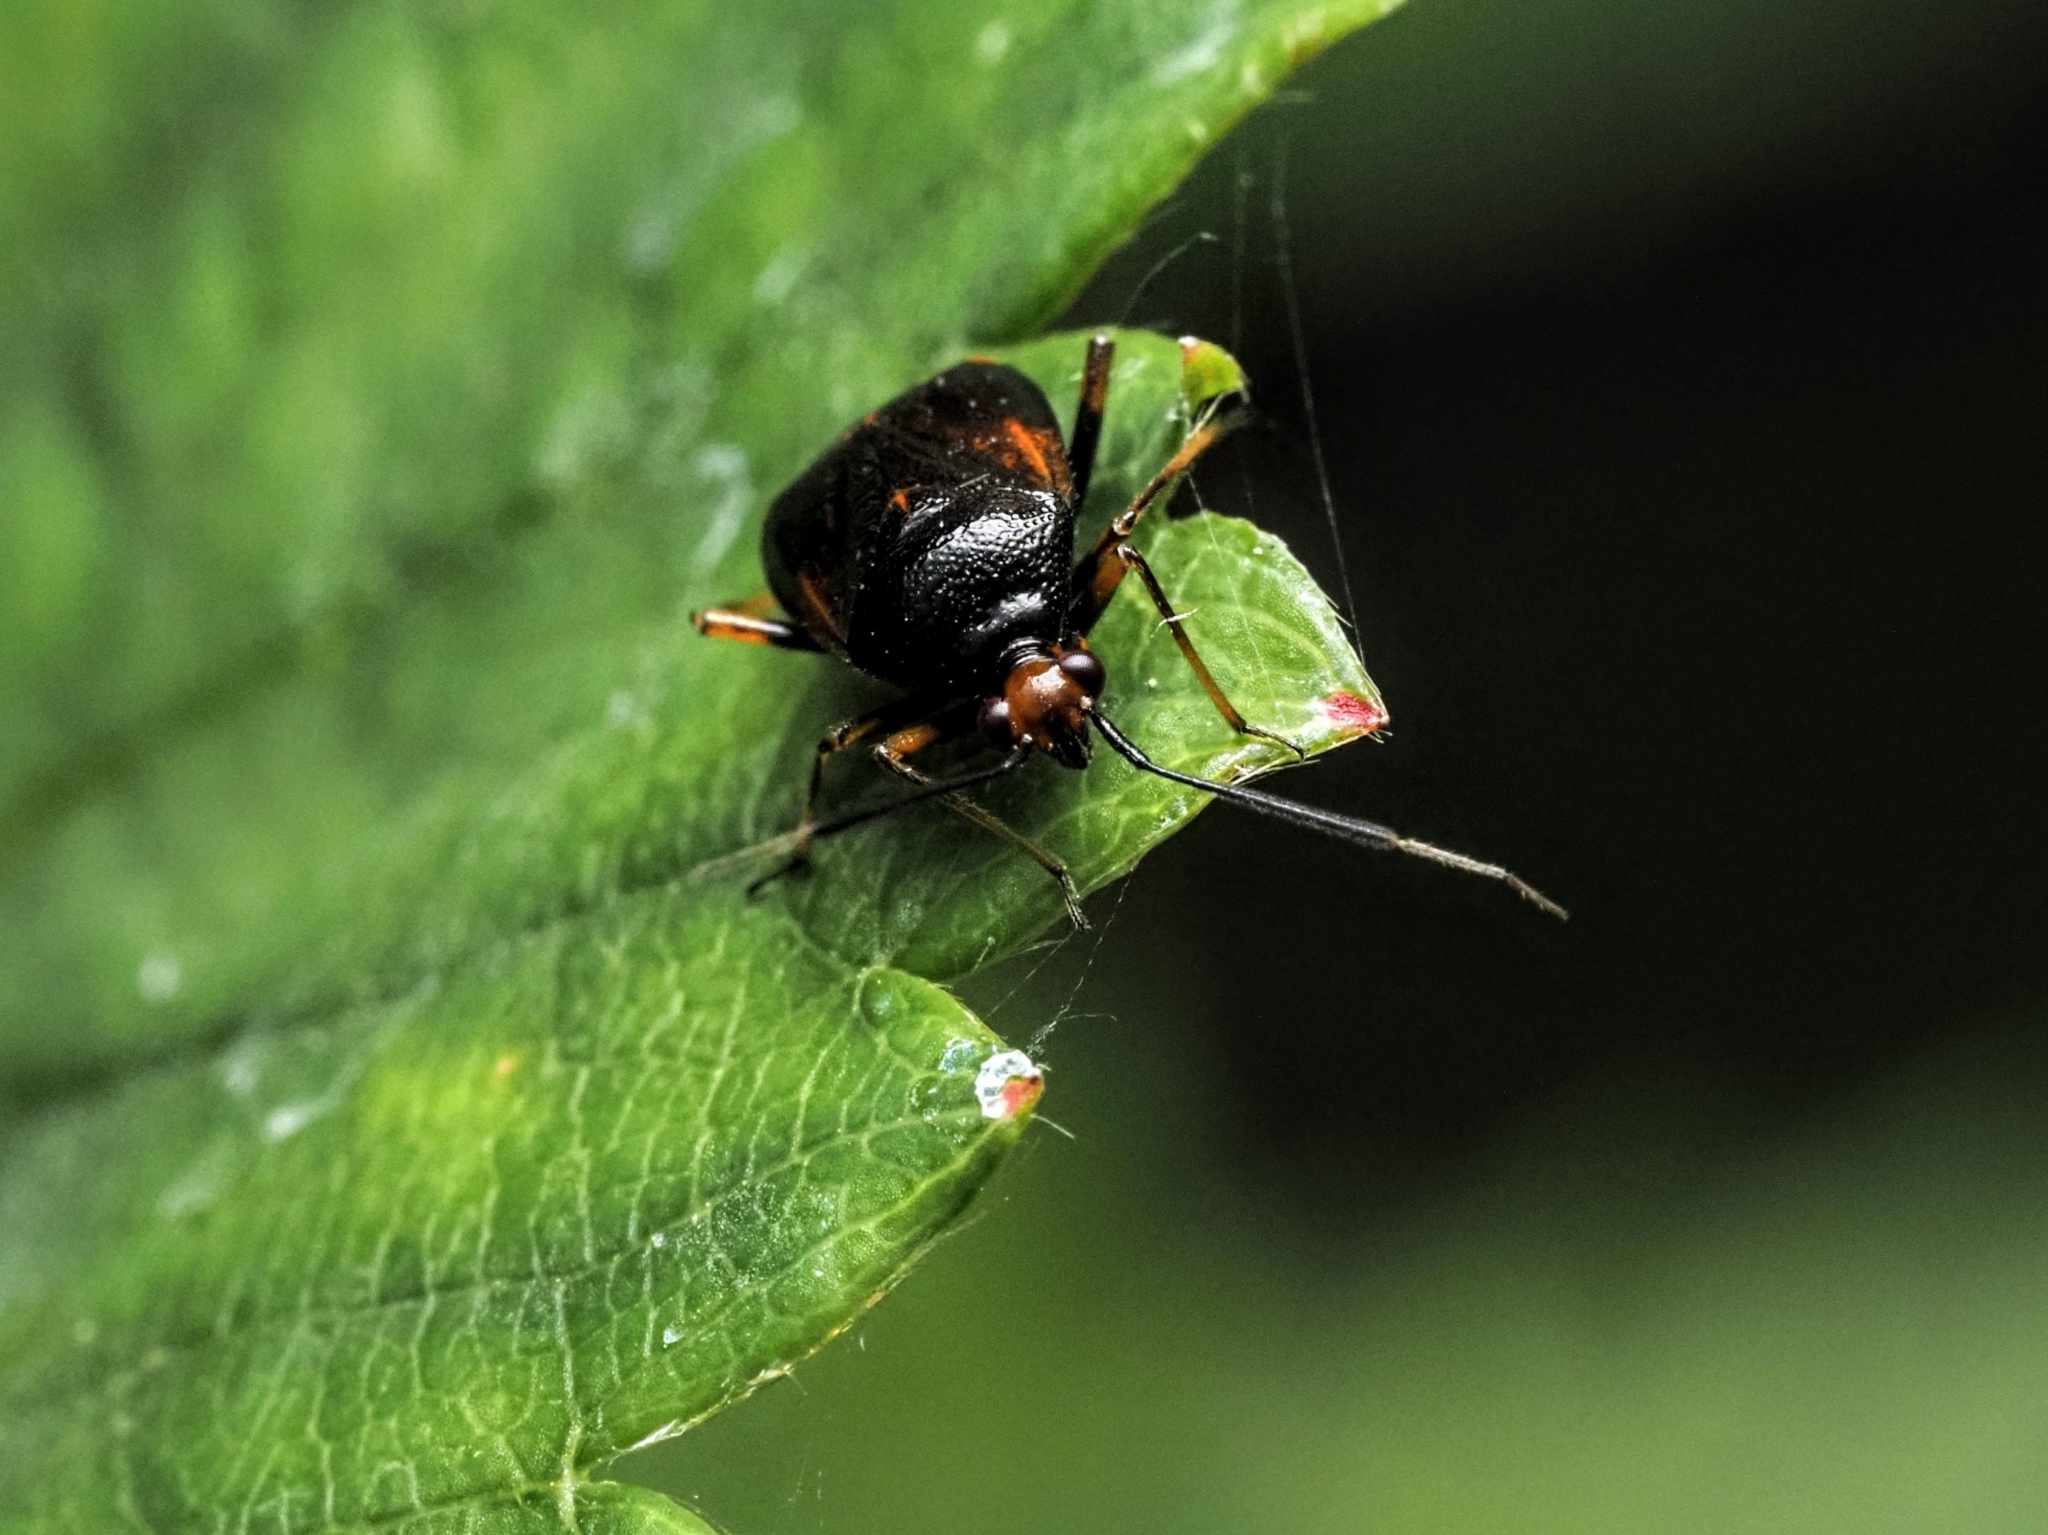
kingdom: Animalia
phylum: Arthropoda
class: Insecta
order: Hemiptera
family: Miridae
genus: Deraeocoris
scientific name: Deraeocoris ruber
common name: Plant bug
